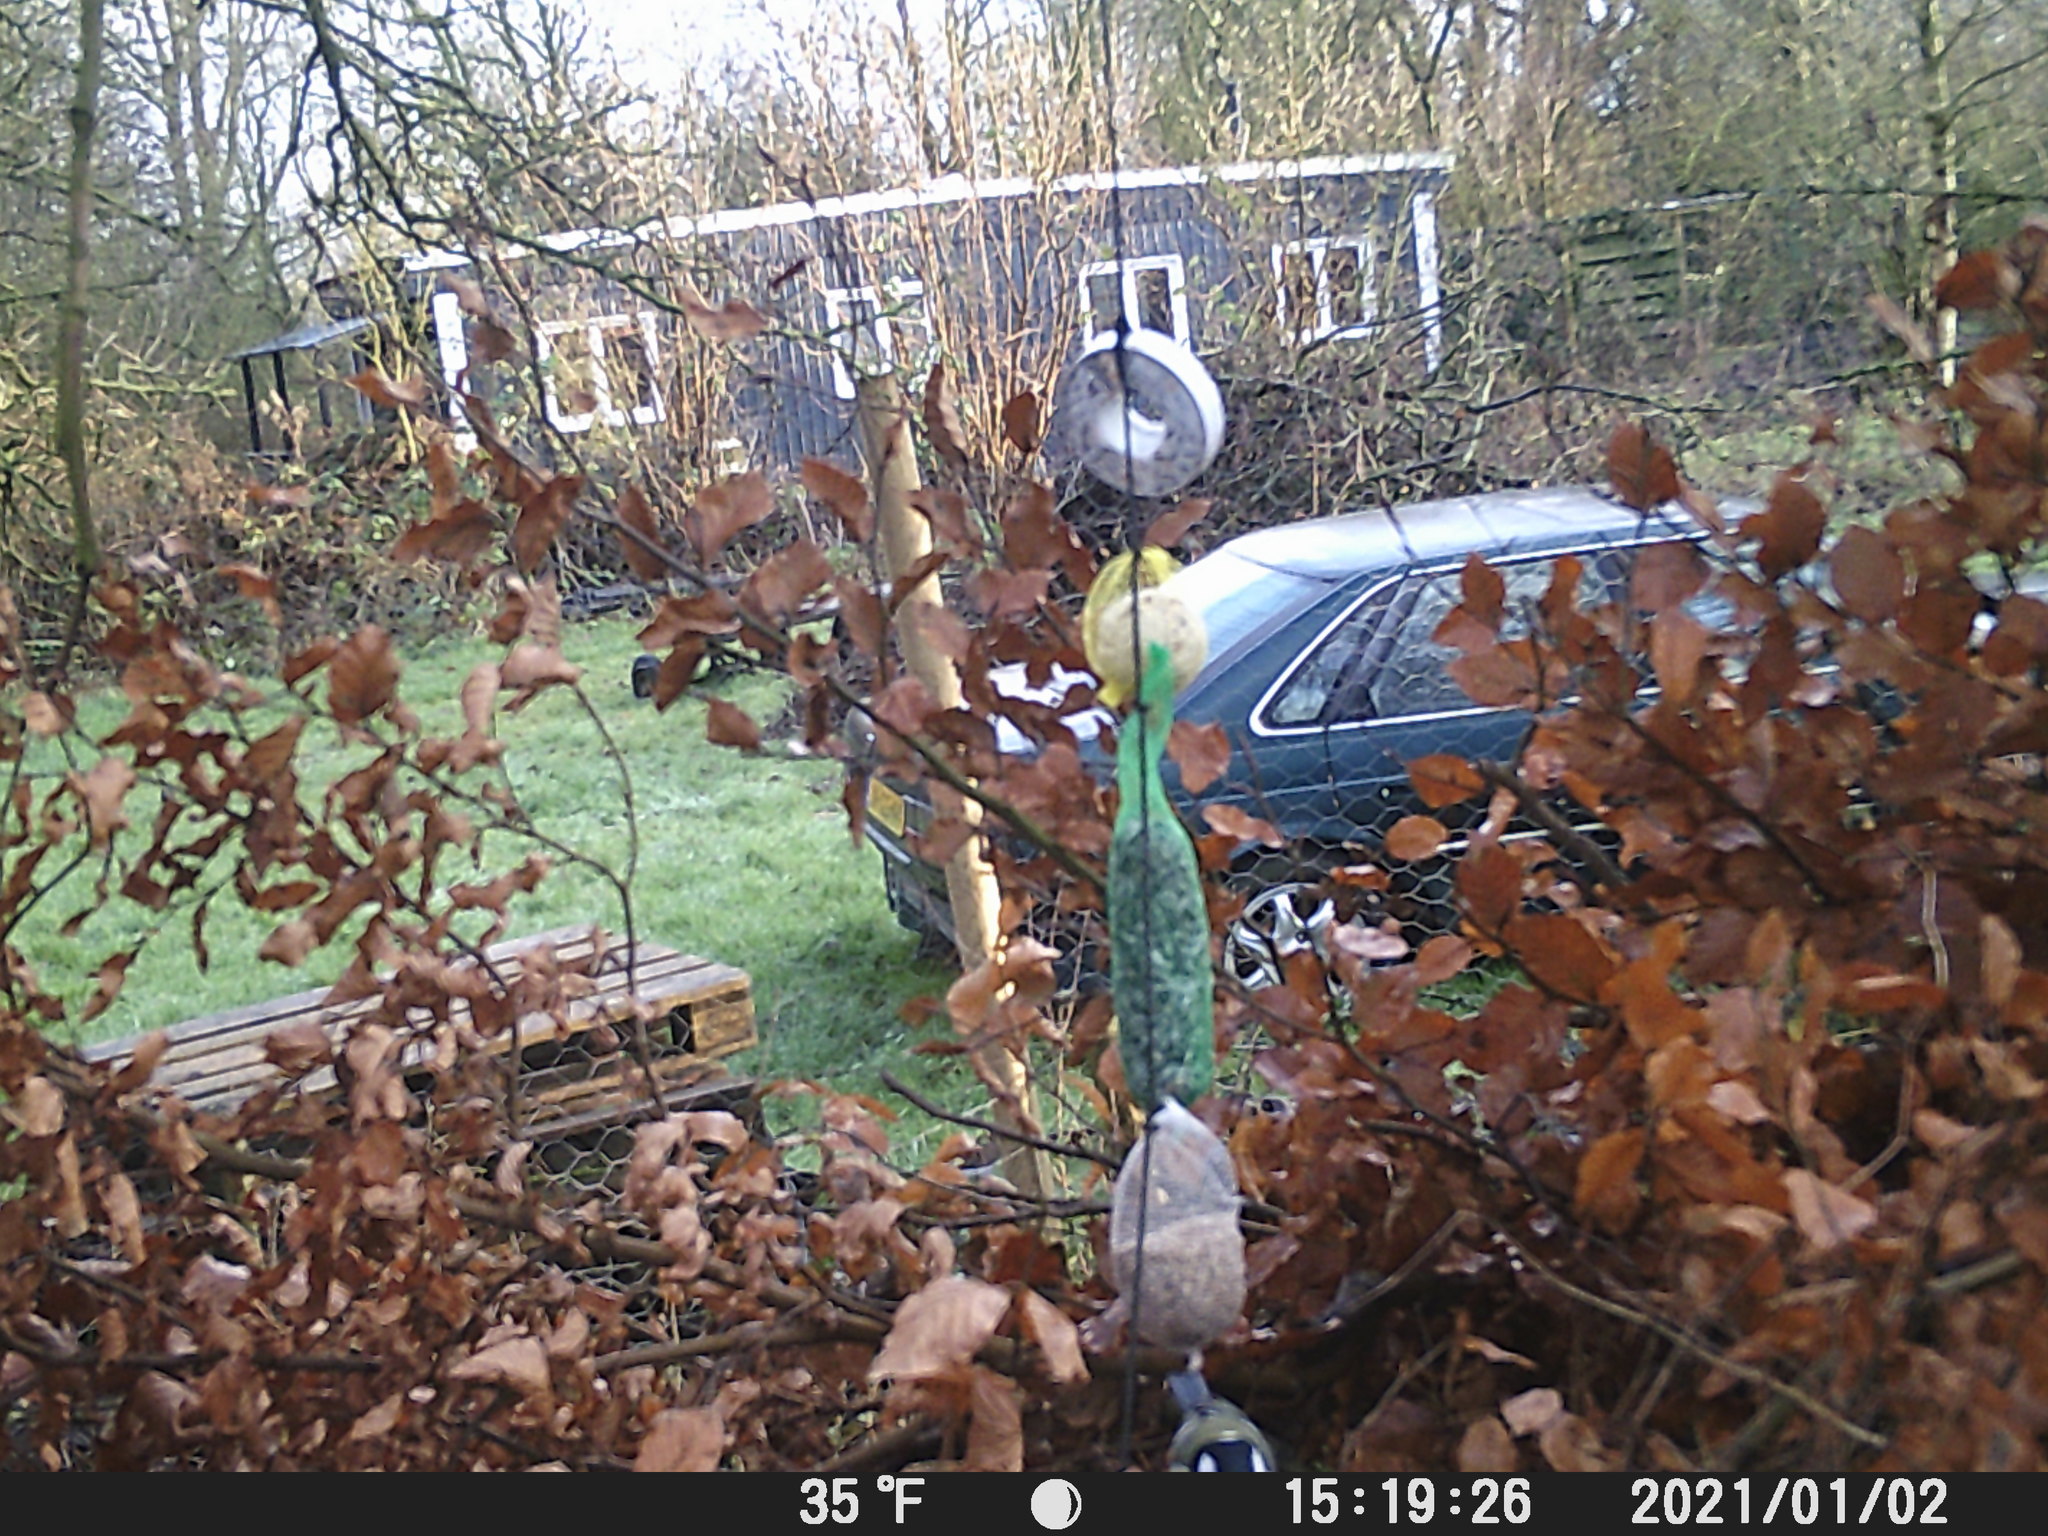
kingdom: Animalia
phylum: Chordata
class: Aves
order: Passeriformes
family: Paridae
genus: Parus
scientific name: Parus major
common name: Great tit
